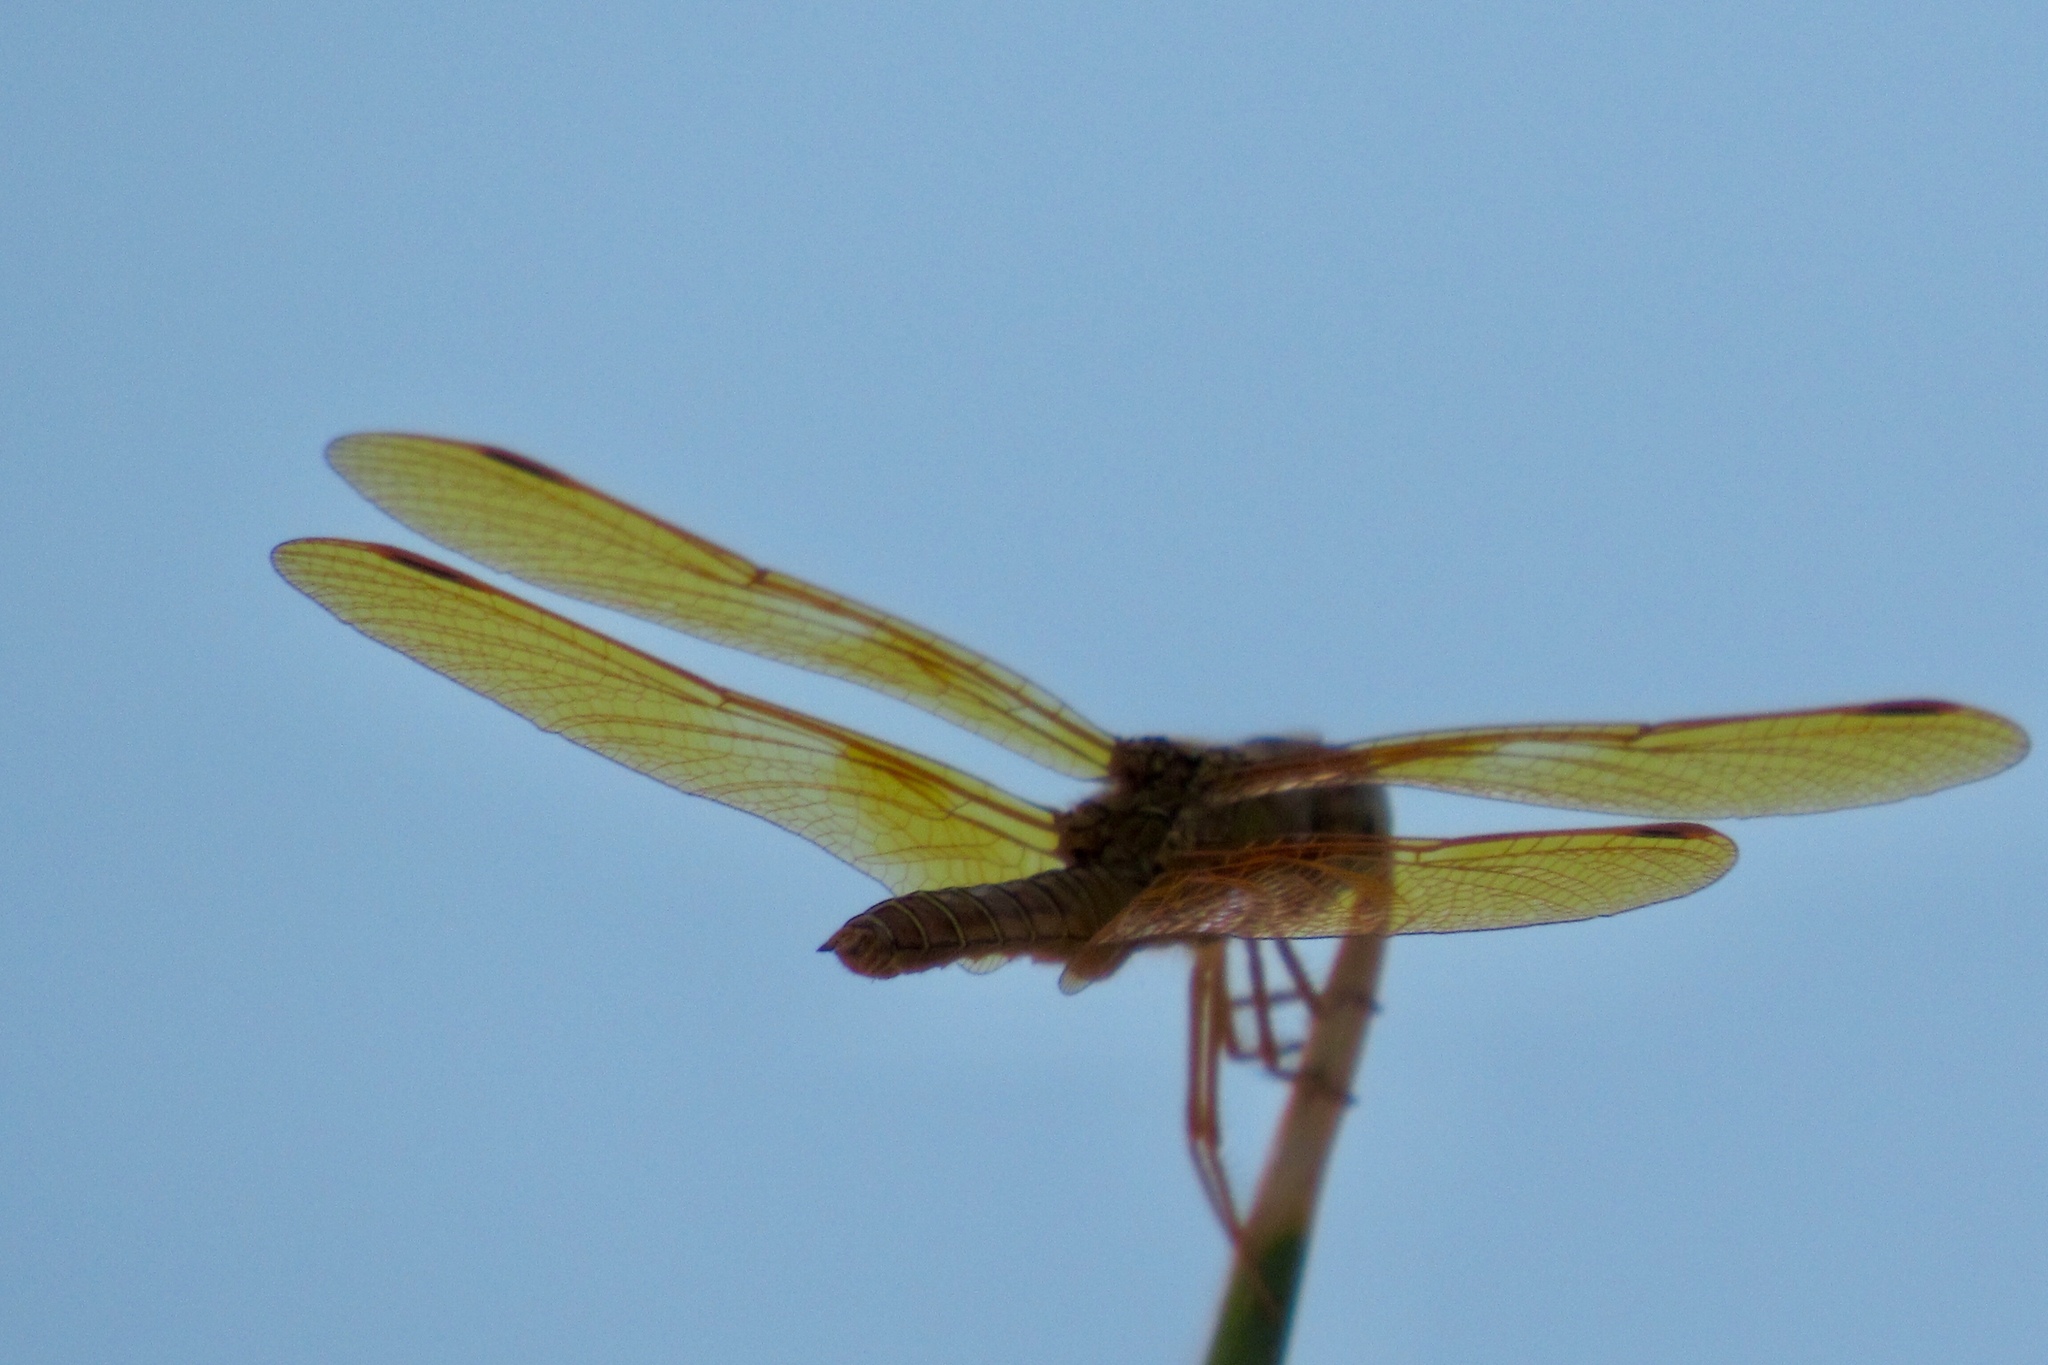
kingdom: Animalia
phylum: Arthropoda
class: Insecta
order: Odonata
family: Libellulidae
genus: Perithemis
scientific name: Perithemis intensa
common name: Mexican amberwing
